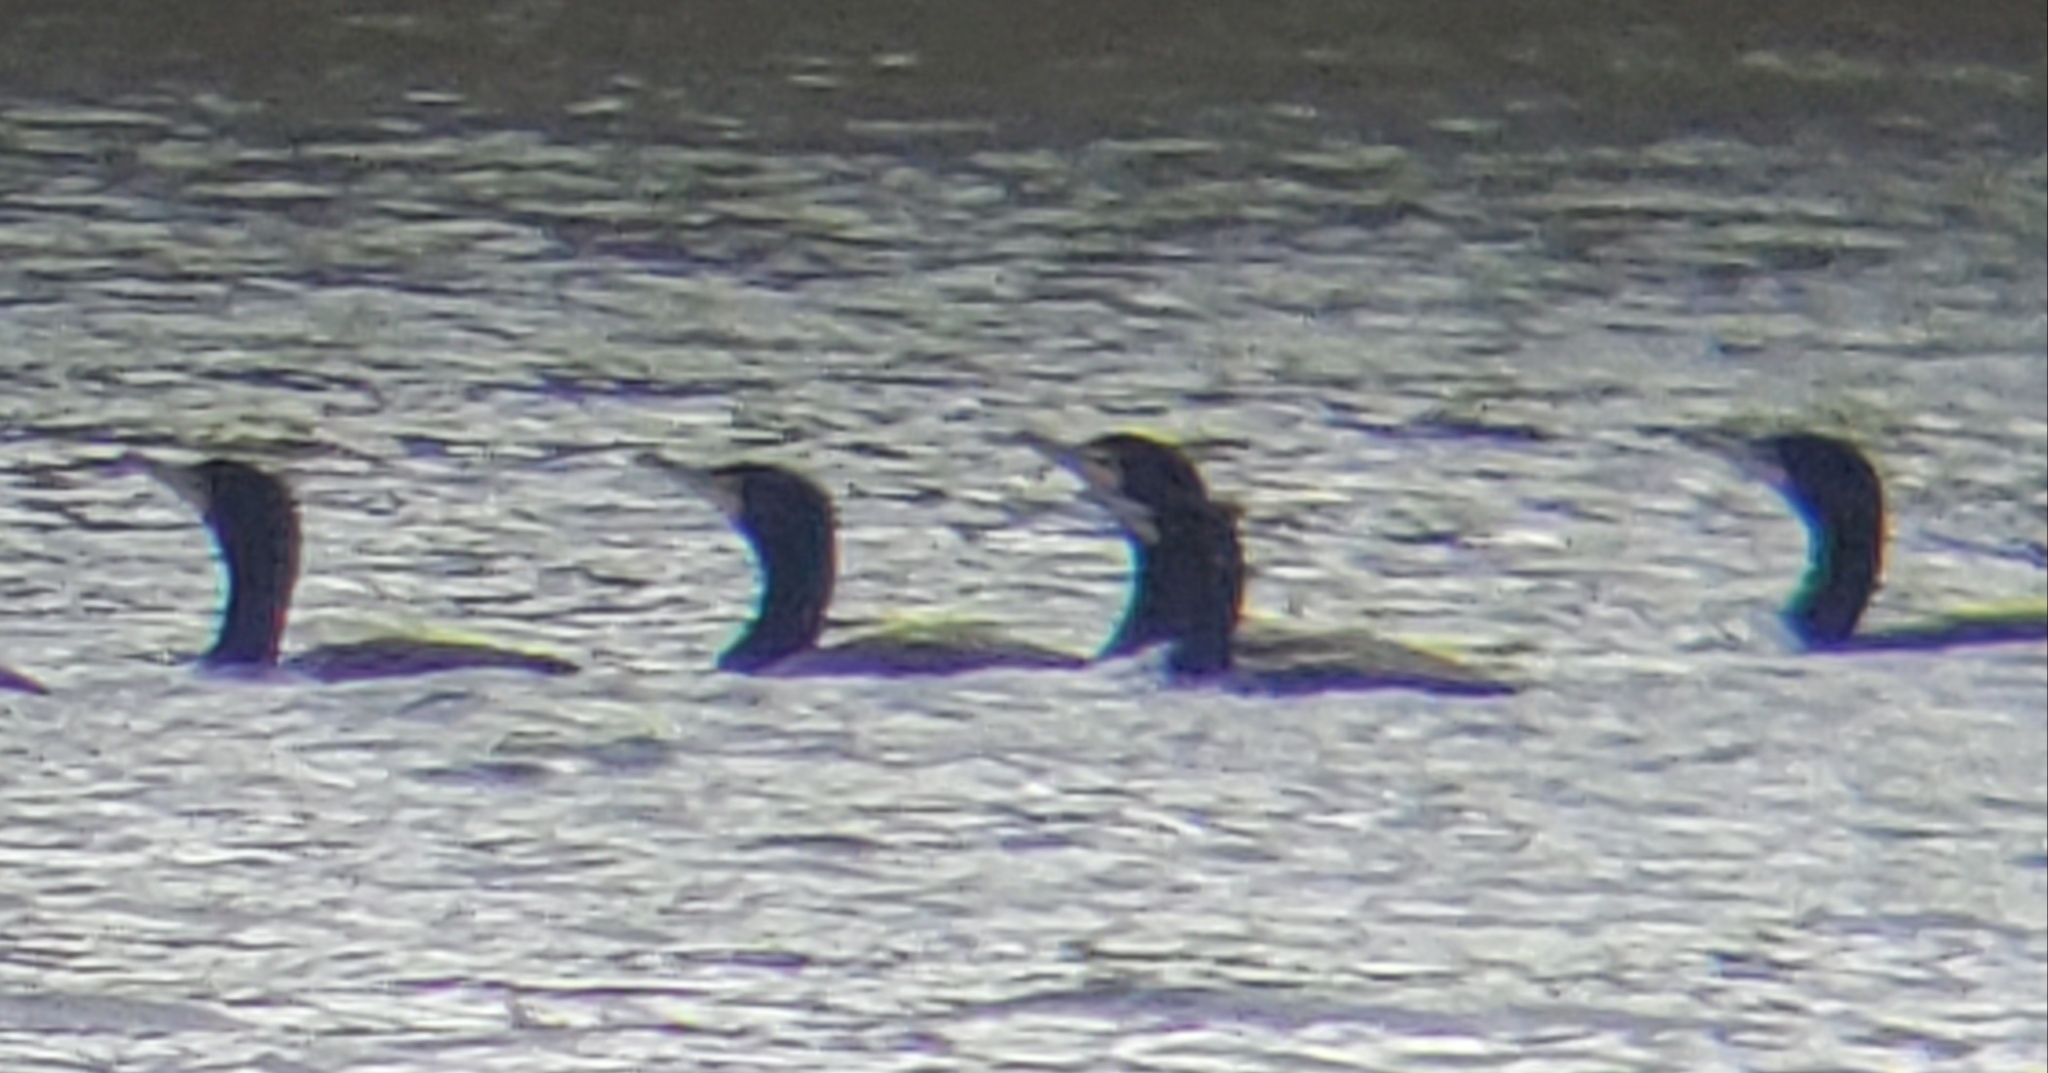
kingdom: Animalia
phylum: Chordata
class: Aves
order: Suliformes
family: Phalacrocoracidae
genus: Phalacrocorax
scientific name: Phalacrocorax auritus
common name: Double-crested cormorant
